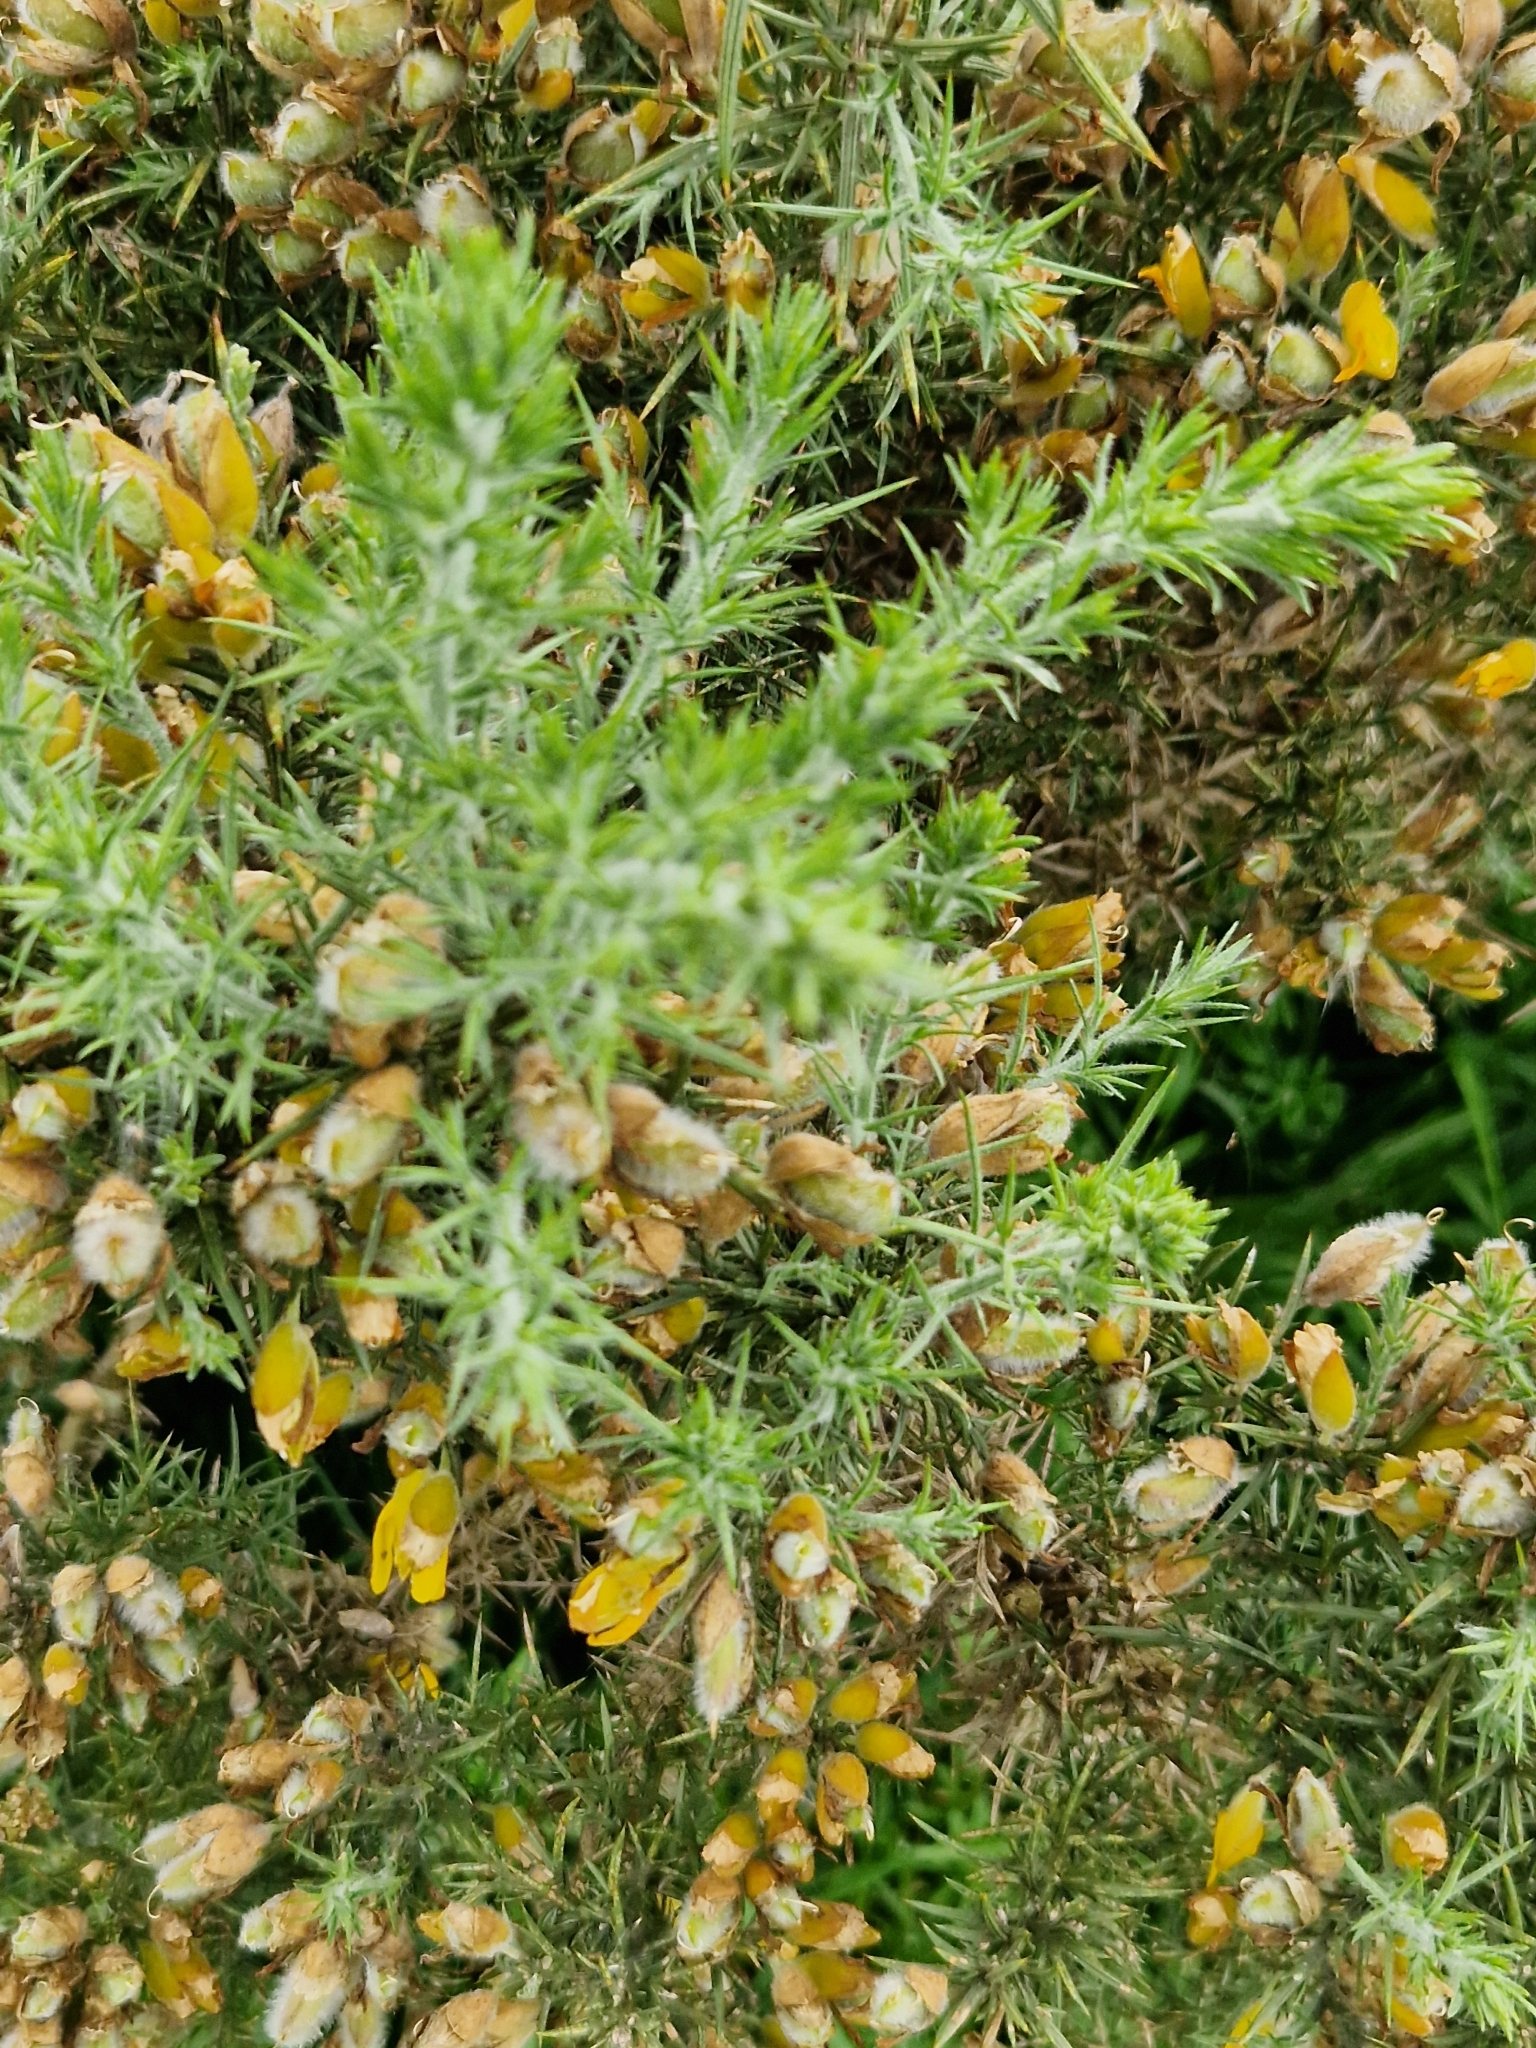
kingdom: Plantae
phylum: Tracheophyta
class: Magnoliopsida
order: Fabales
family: Fabaceae
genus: Ulex
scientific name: Ulex europaeus
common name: Common gorse
